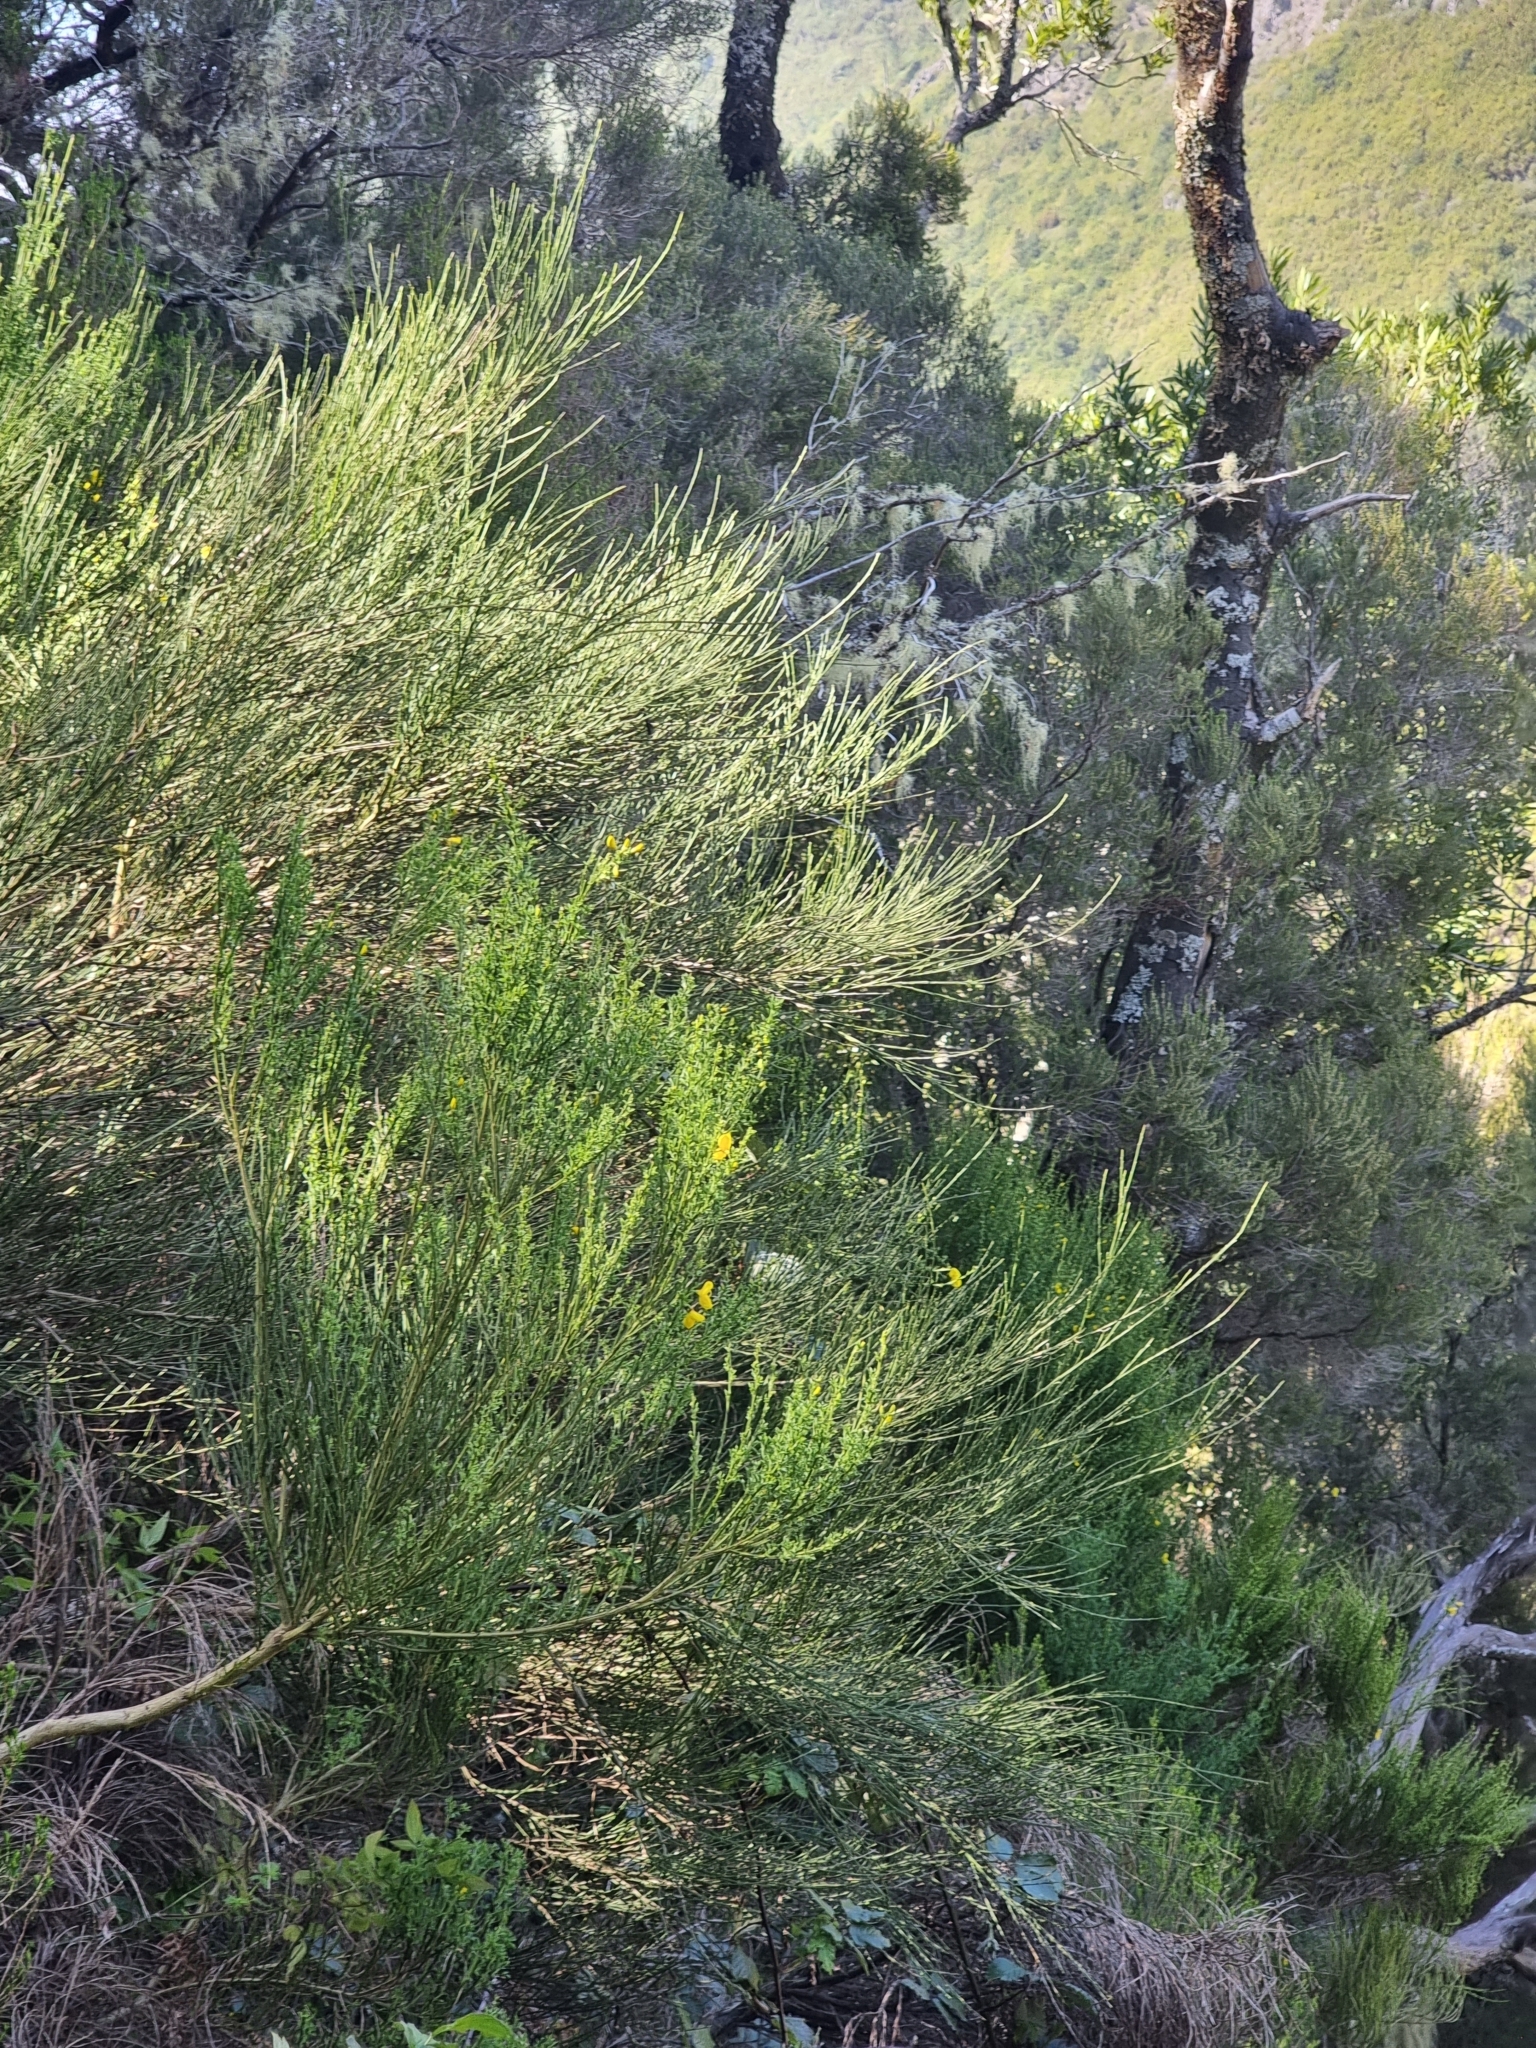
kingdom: Plantae
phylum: Tracheophyta
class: Magnoliopsida
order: Fabales
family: Fabaceae
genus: Cytisus
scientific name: Cytisus scoparius
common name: Scotch broom
